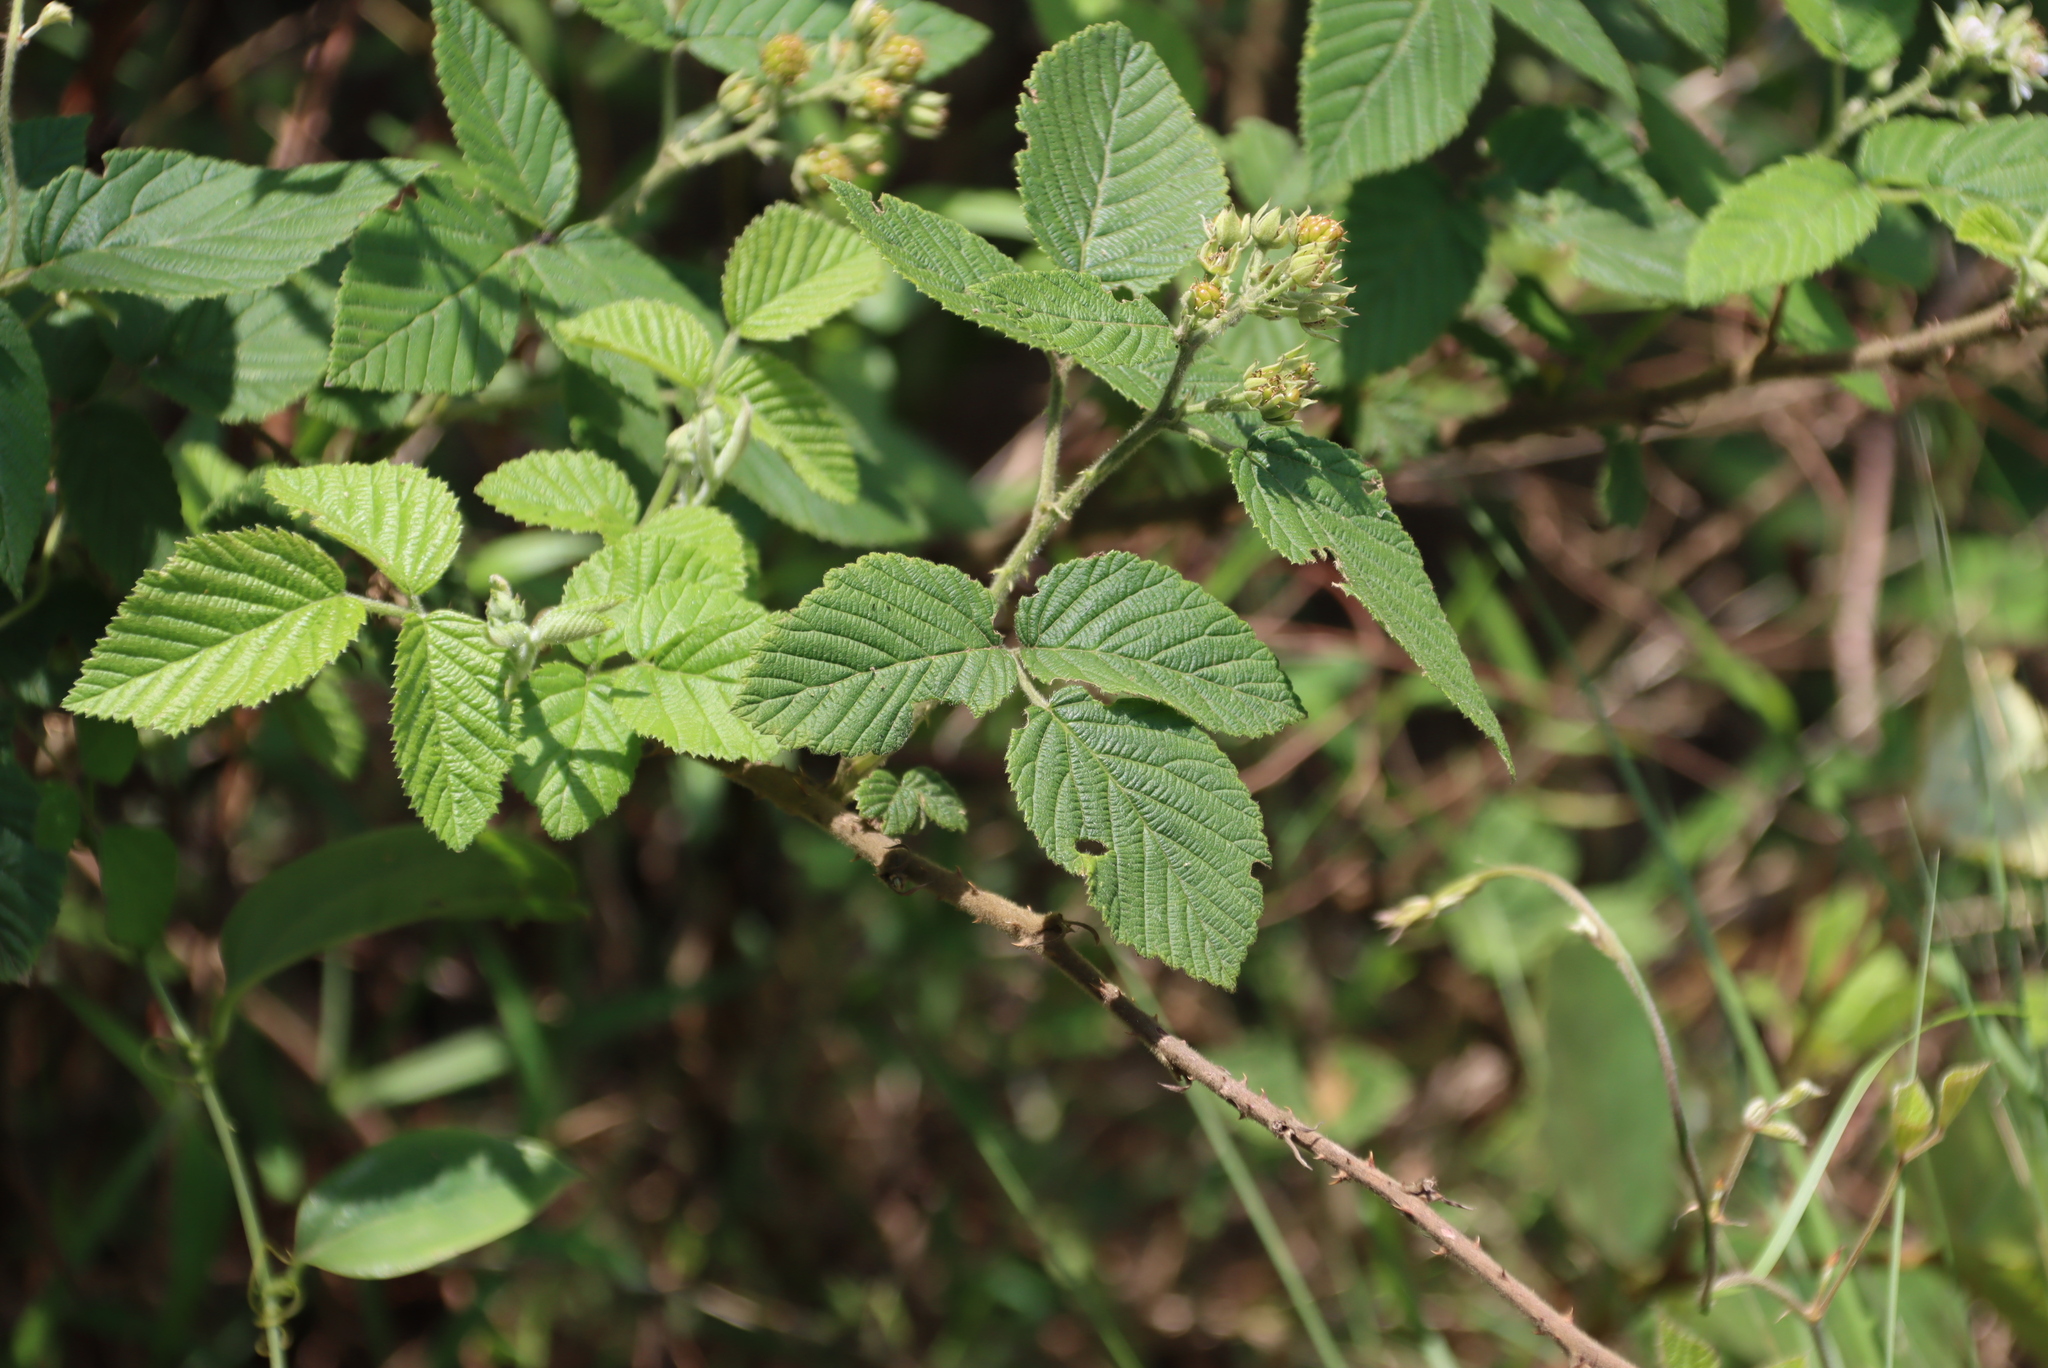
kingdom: Plantae
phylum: Tracheophyta
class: Magnoliopsida
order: Rosales
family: Rosaceae
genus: Rubus
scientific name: Rubus apetalus
